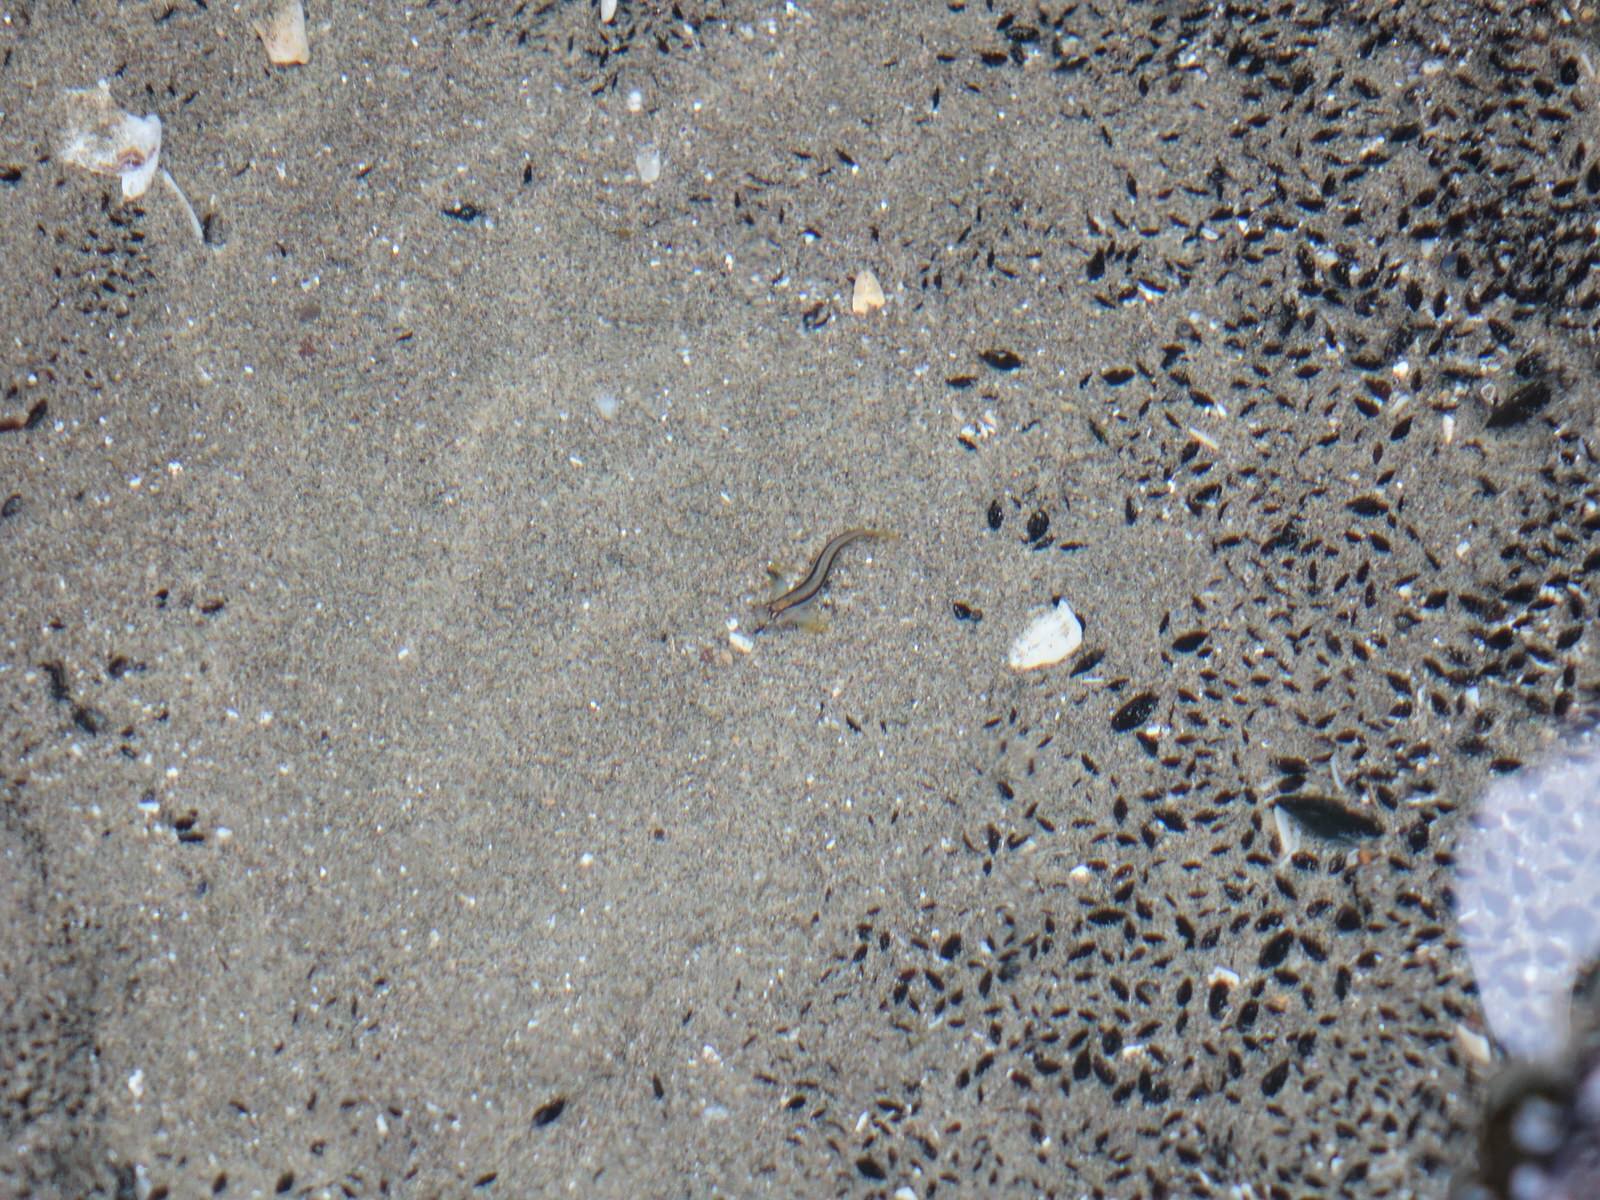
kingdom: Animalia
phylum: Chordata
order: Perciformes
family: Blenniidae
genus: Parablennius
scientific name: Parablennius laticlavius
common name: Crested blenny
